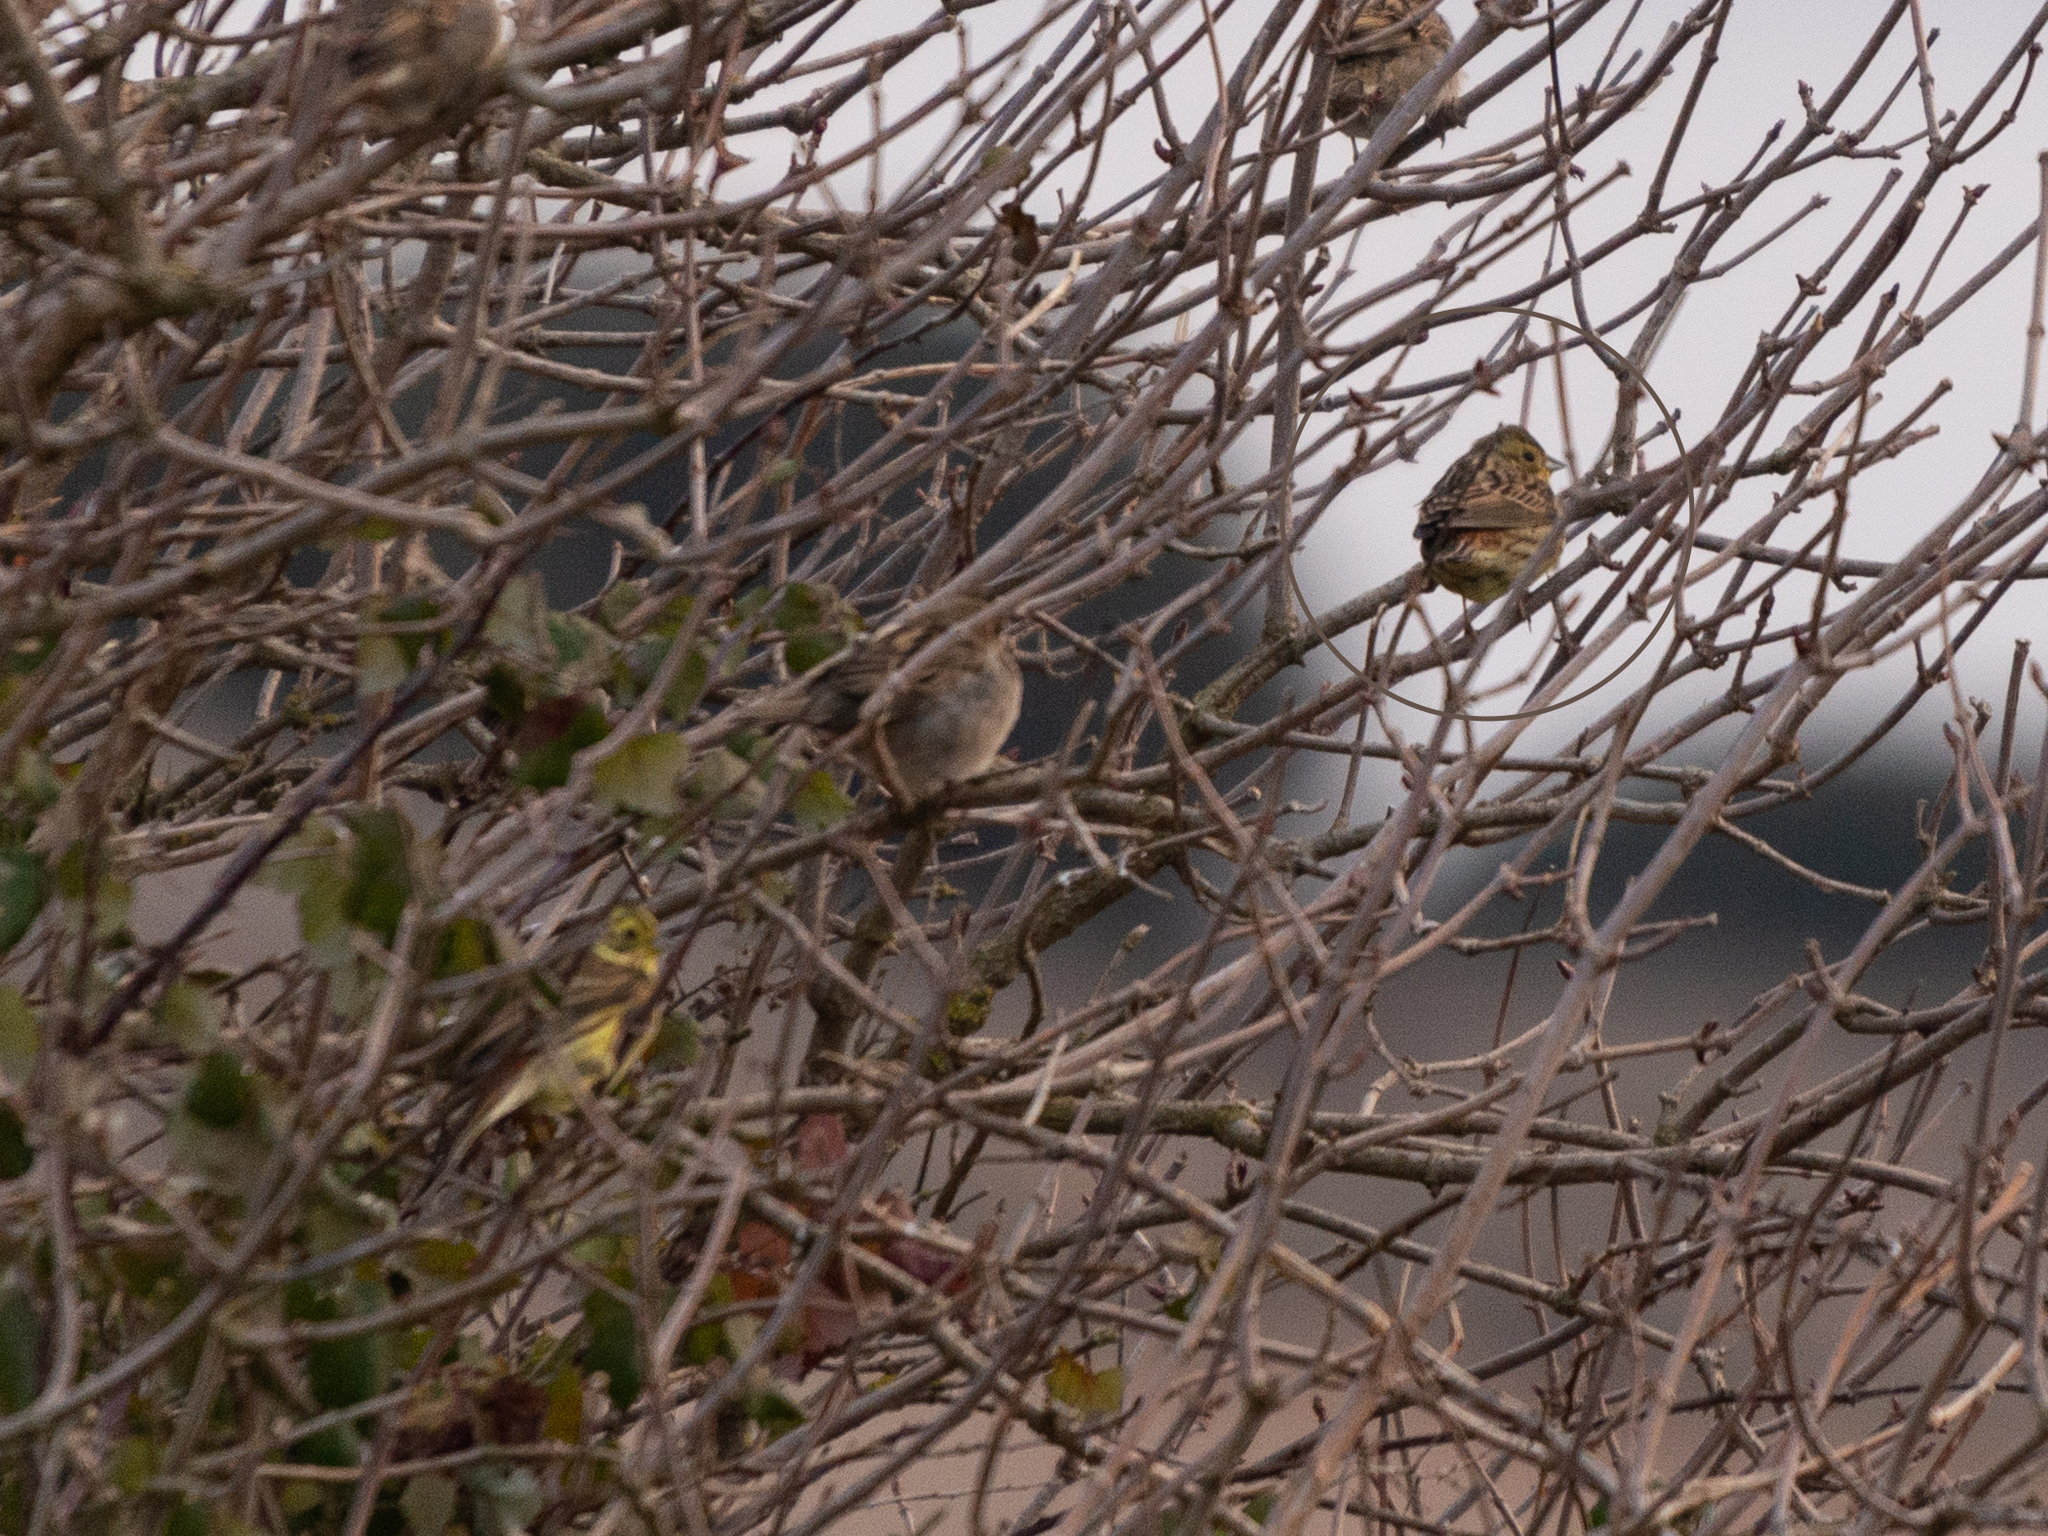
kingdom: Animalia
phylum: Chordata
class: Aves
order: Passeriformes
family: Emberizidae
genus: Emberiza
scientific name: Emberiza citrinella
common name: Yellowhammer
